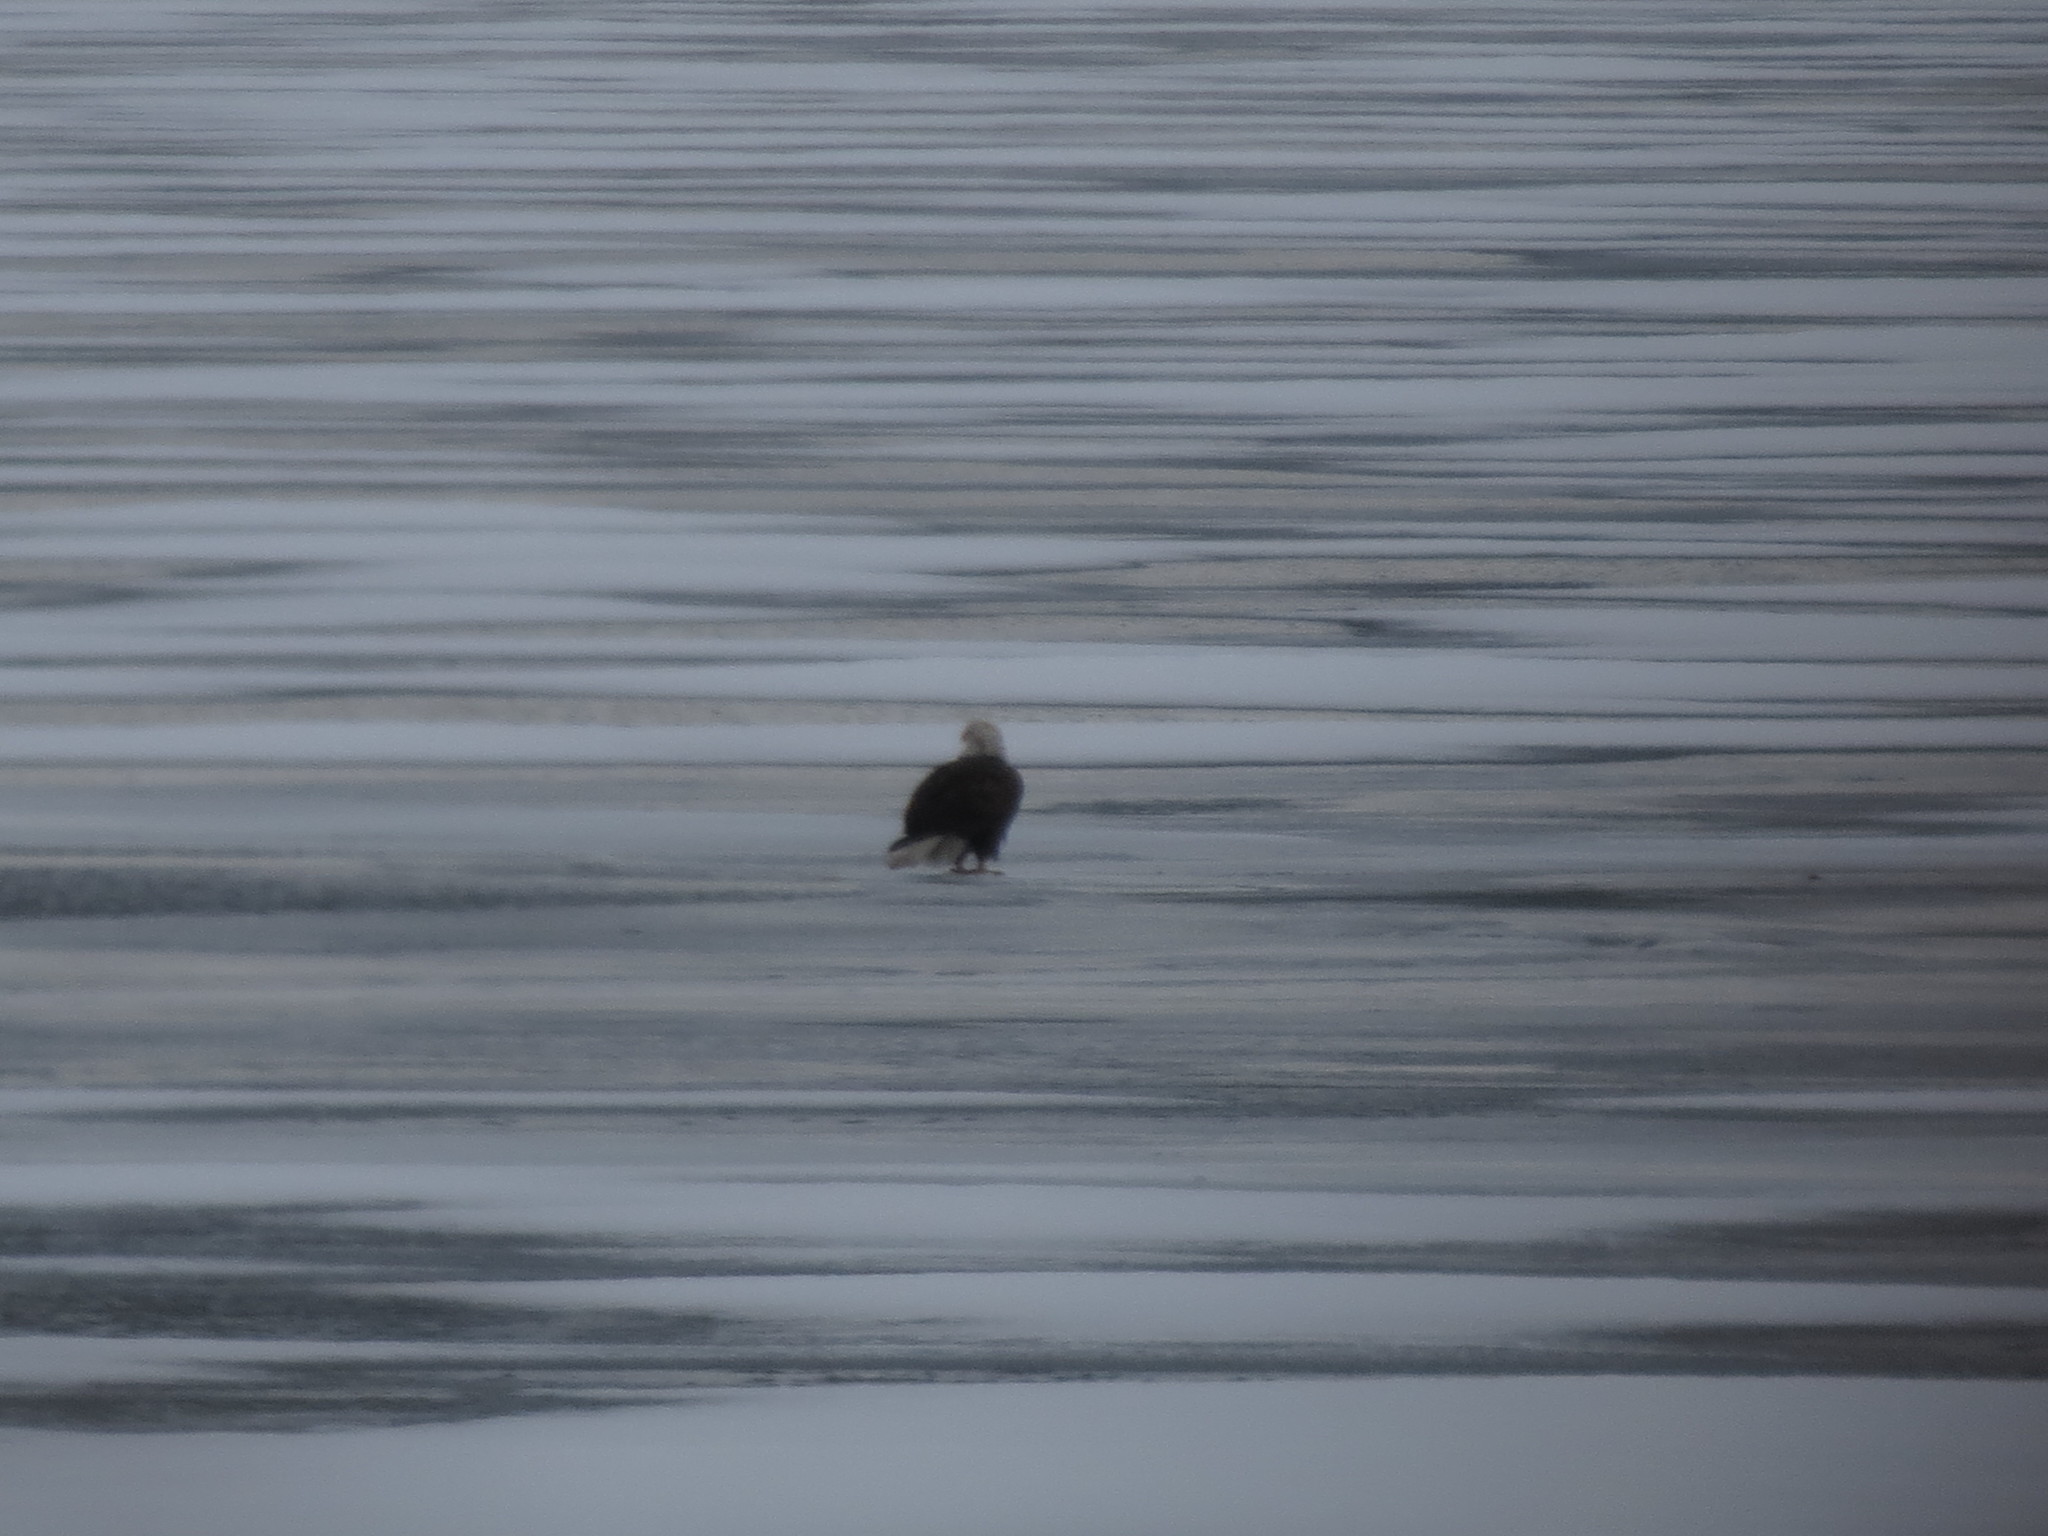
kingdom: Animalia
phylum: Chordata
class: Aves
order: Accipitriformes
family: Accipitridae
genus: Haliaeetus
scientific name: Haliaeetus leucocephalus
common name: Bald eagle
